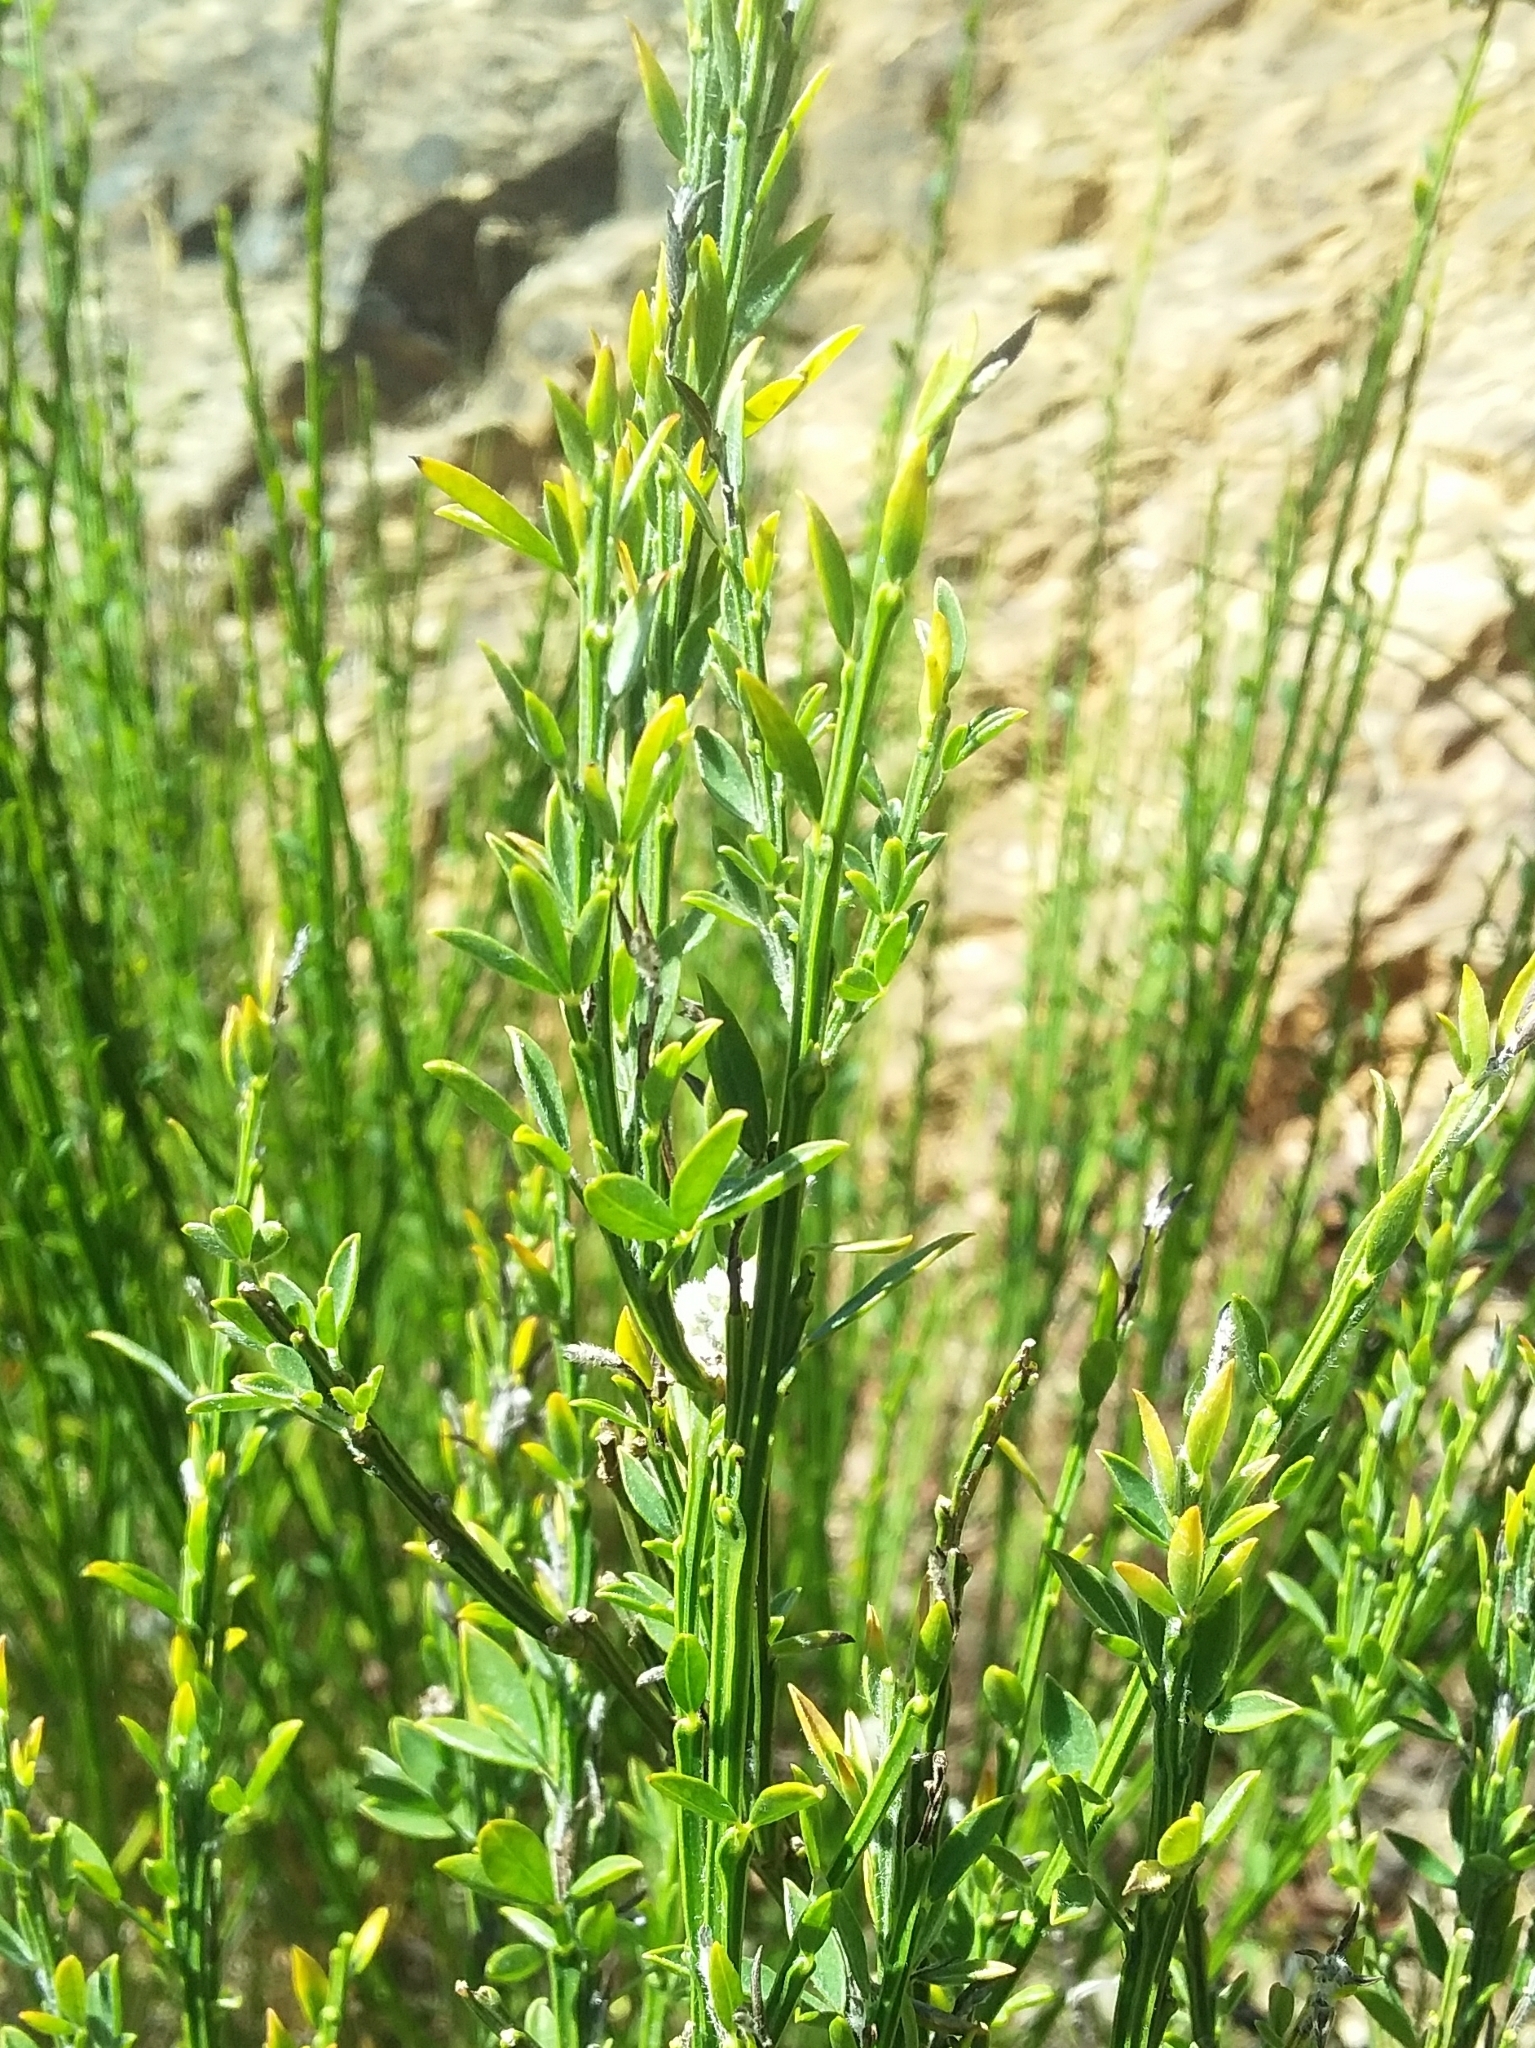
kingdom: Plantae
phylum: Tracheophyta
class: Magnoliopsida
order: Fabales
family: Fabaceae
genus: Cytisus
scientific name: Cytisus scoparius
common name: Scotch broom
